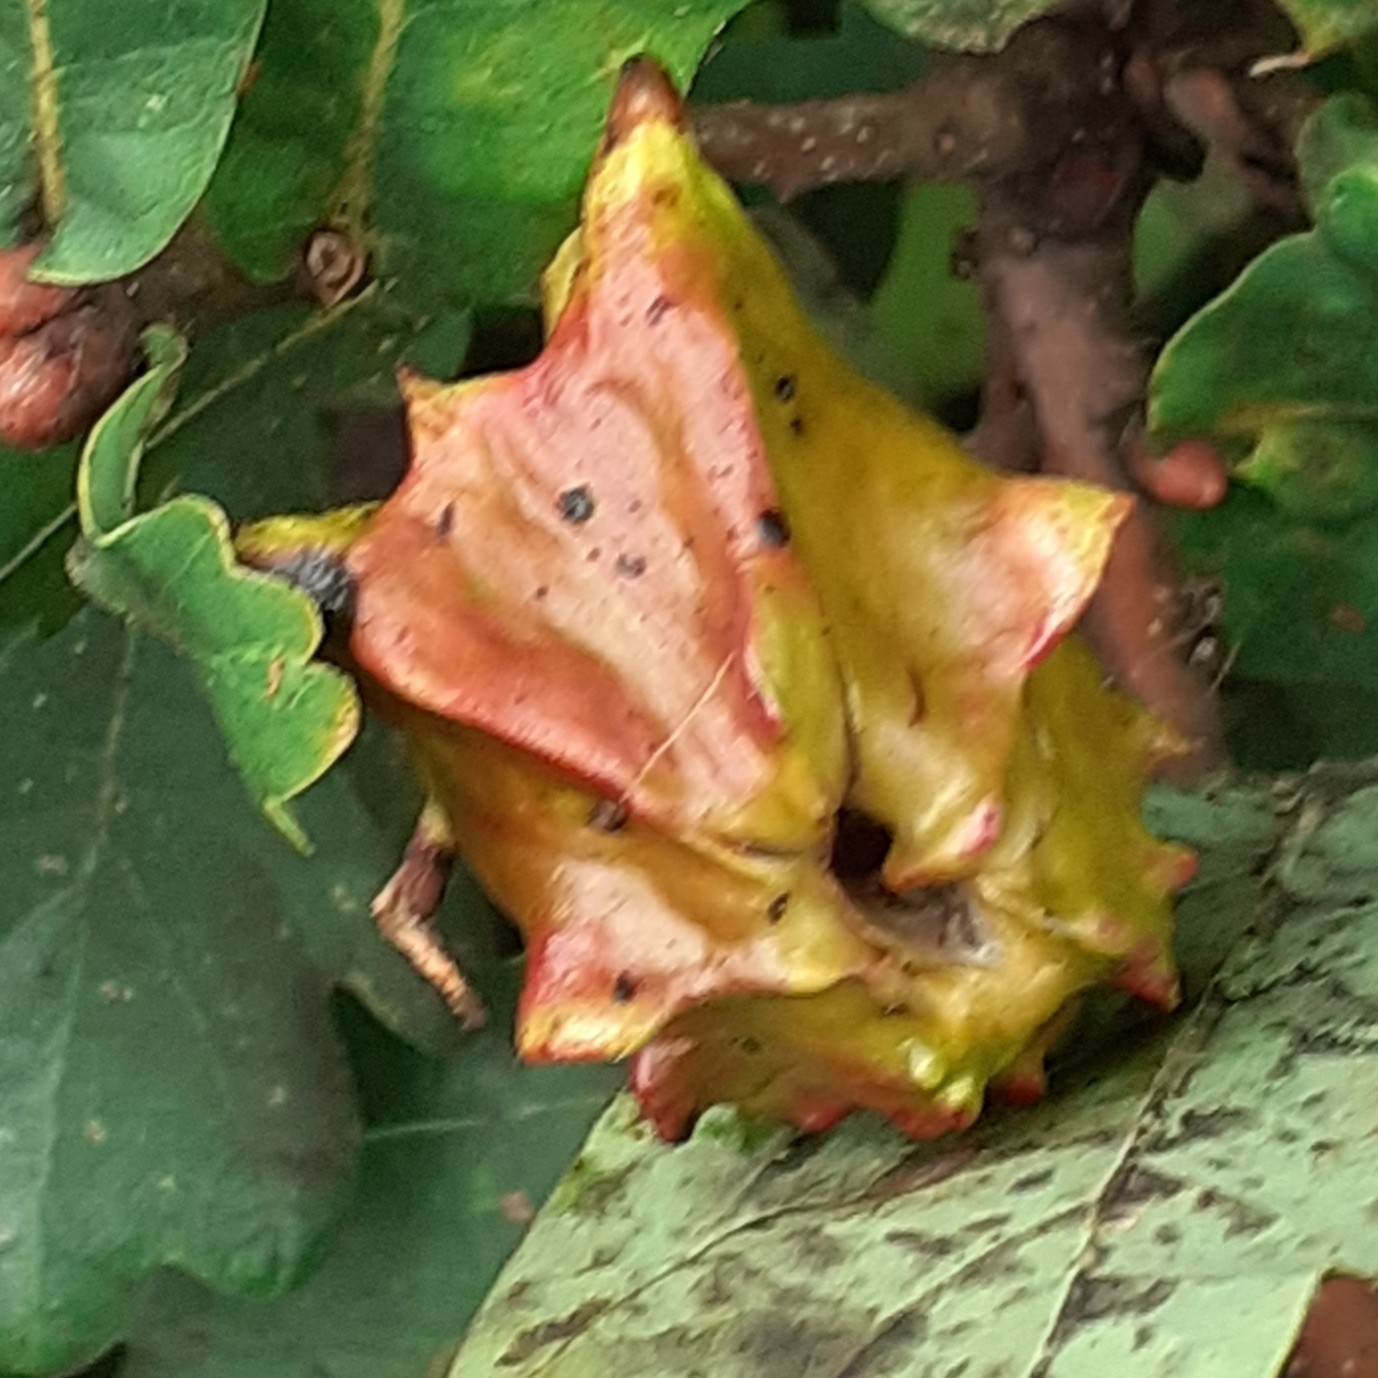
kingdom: Animalia
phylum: Arthropoda
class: Insecta
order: Hymenoptera
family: Cynipidae
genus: Andricus
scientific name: Andricus quercuscalicis
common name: Knopper gall
